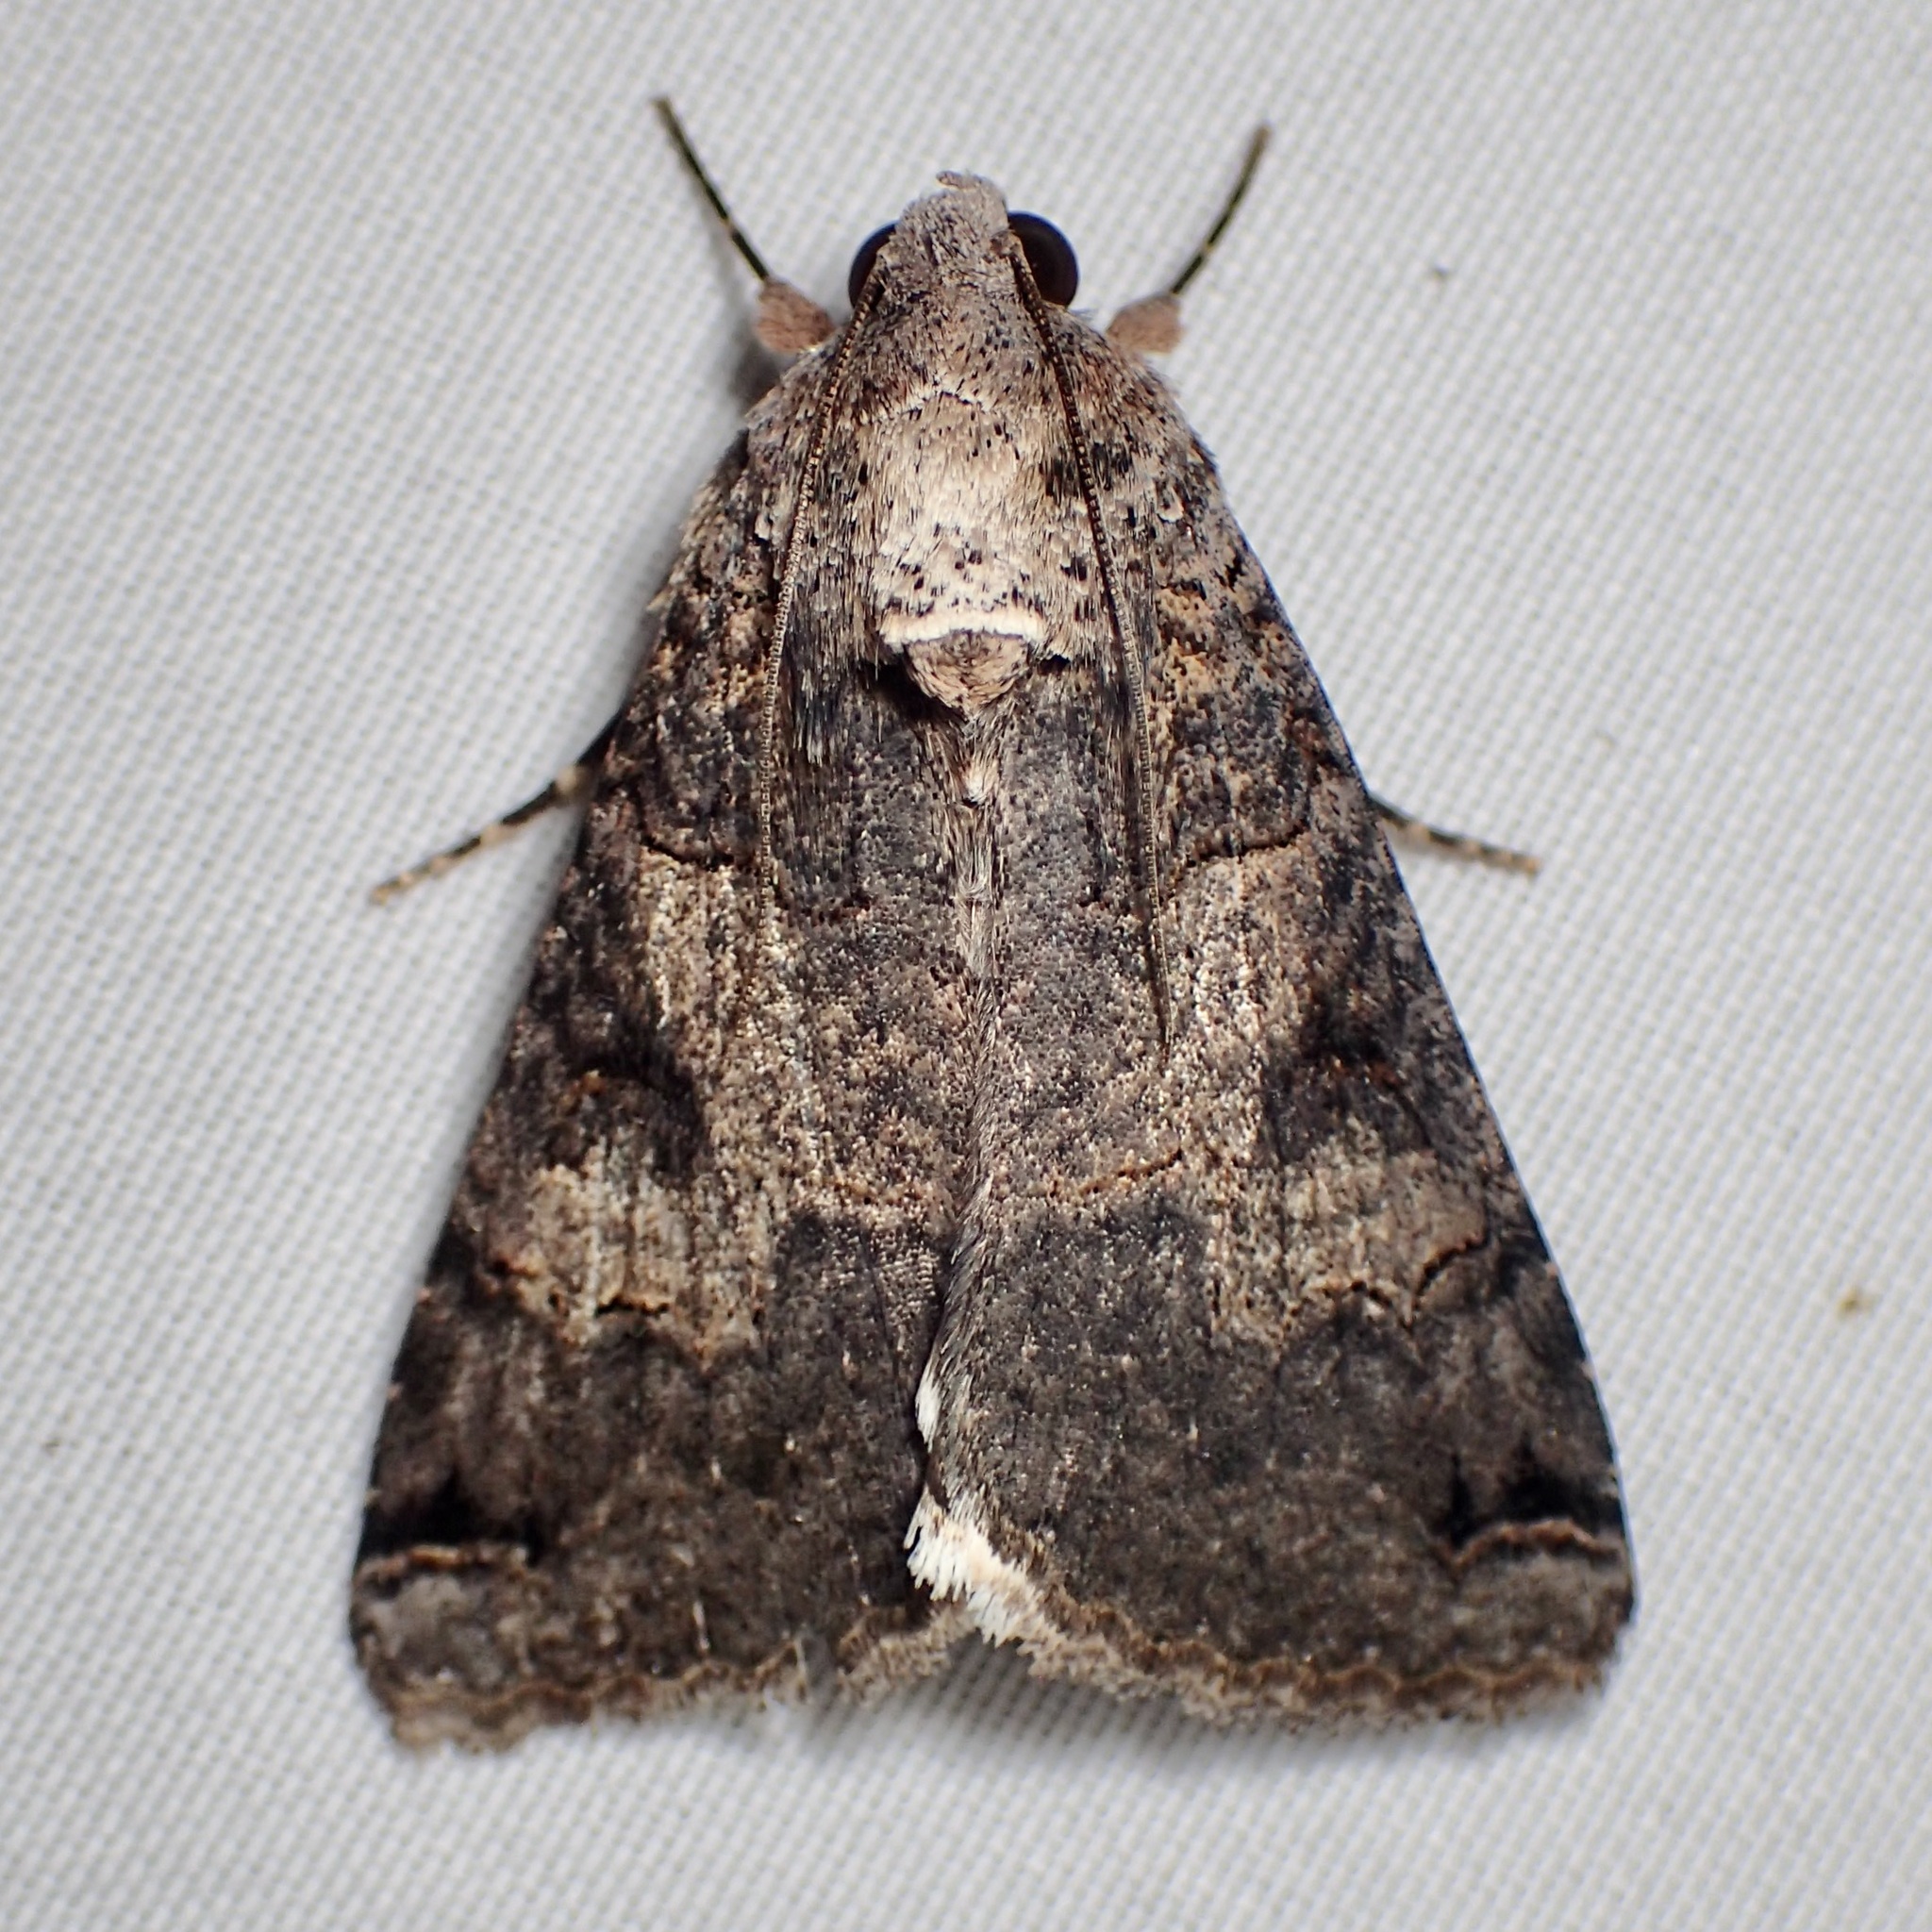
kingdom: Animalia
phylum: Arthropoda
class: Insecta
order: Lepidoptera
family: Erebidae
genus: Melipotis
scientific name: Melipotis novanda
